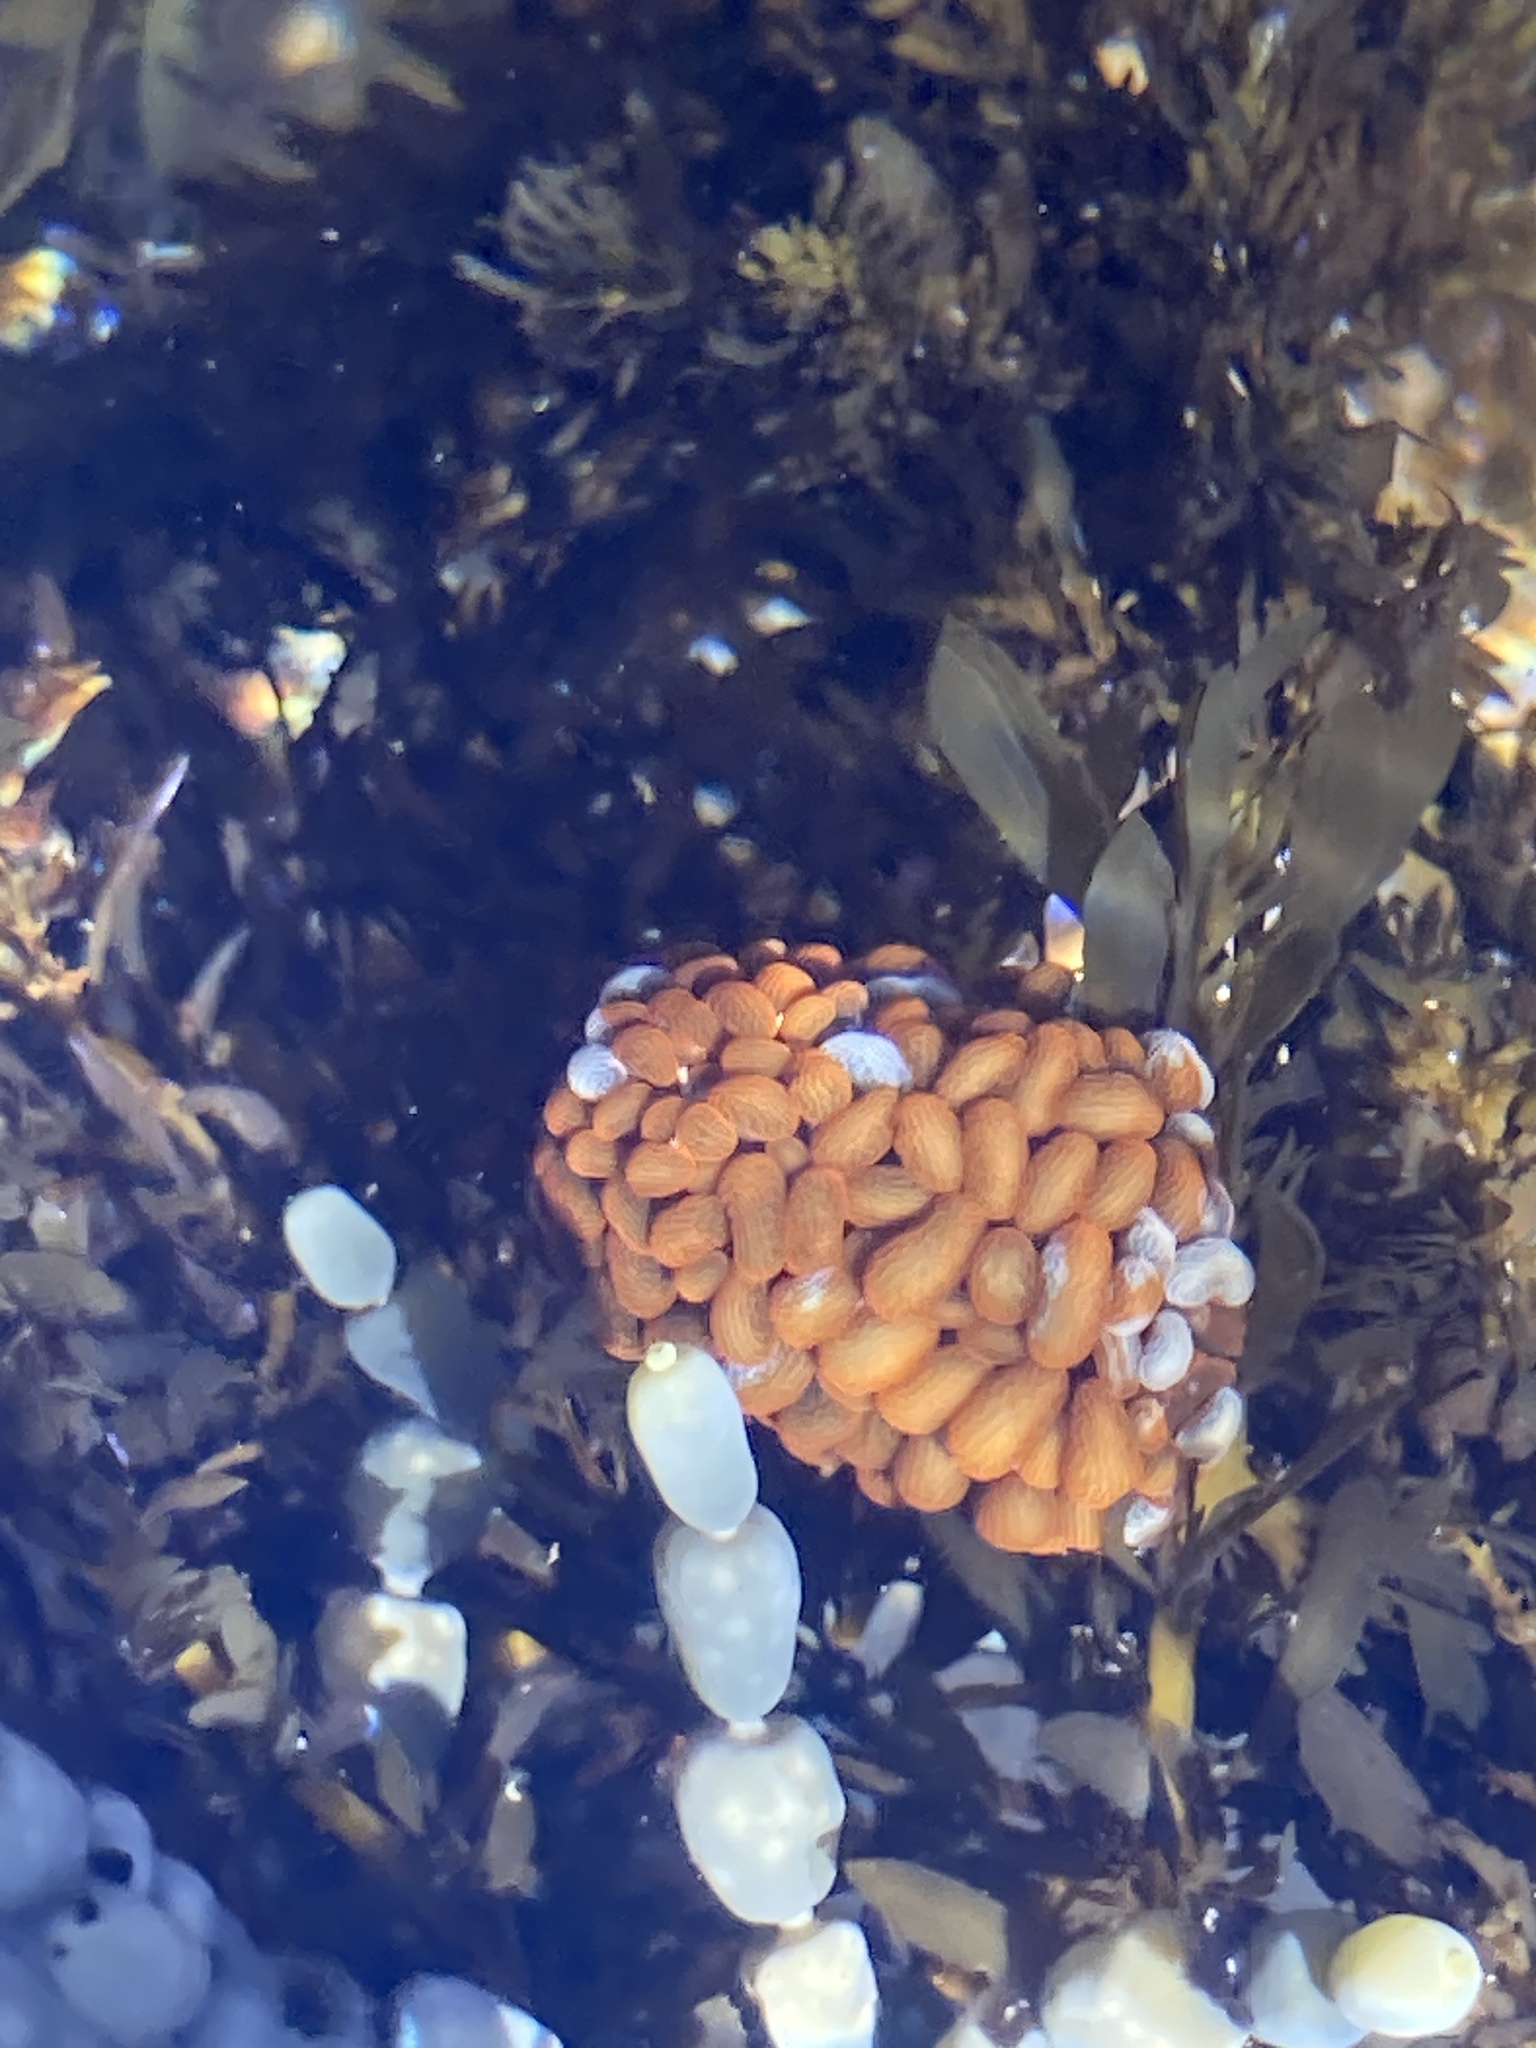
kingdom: Animalia
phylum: Cnidaria
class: Anthozoa
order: Actiniaria
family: Actiniidae
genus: Phlyctenactis
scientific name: Phlyctenactis tuberculosa
